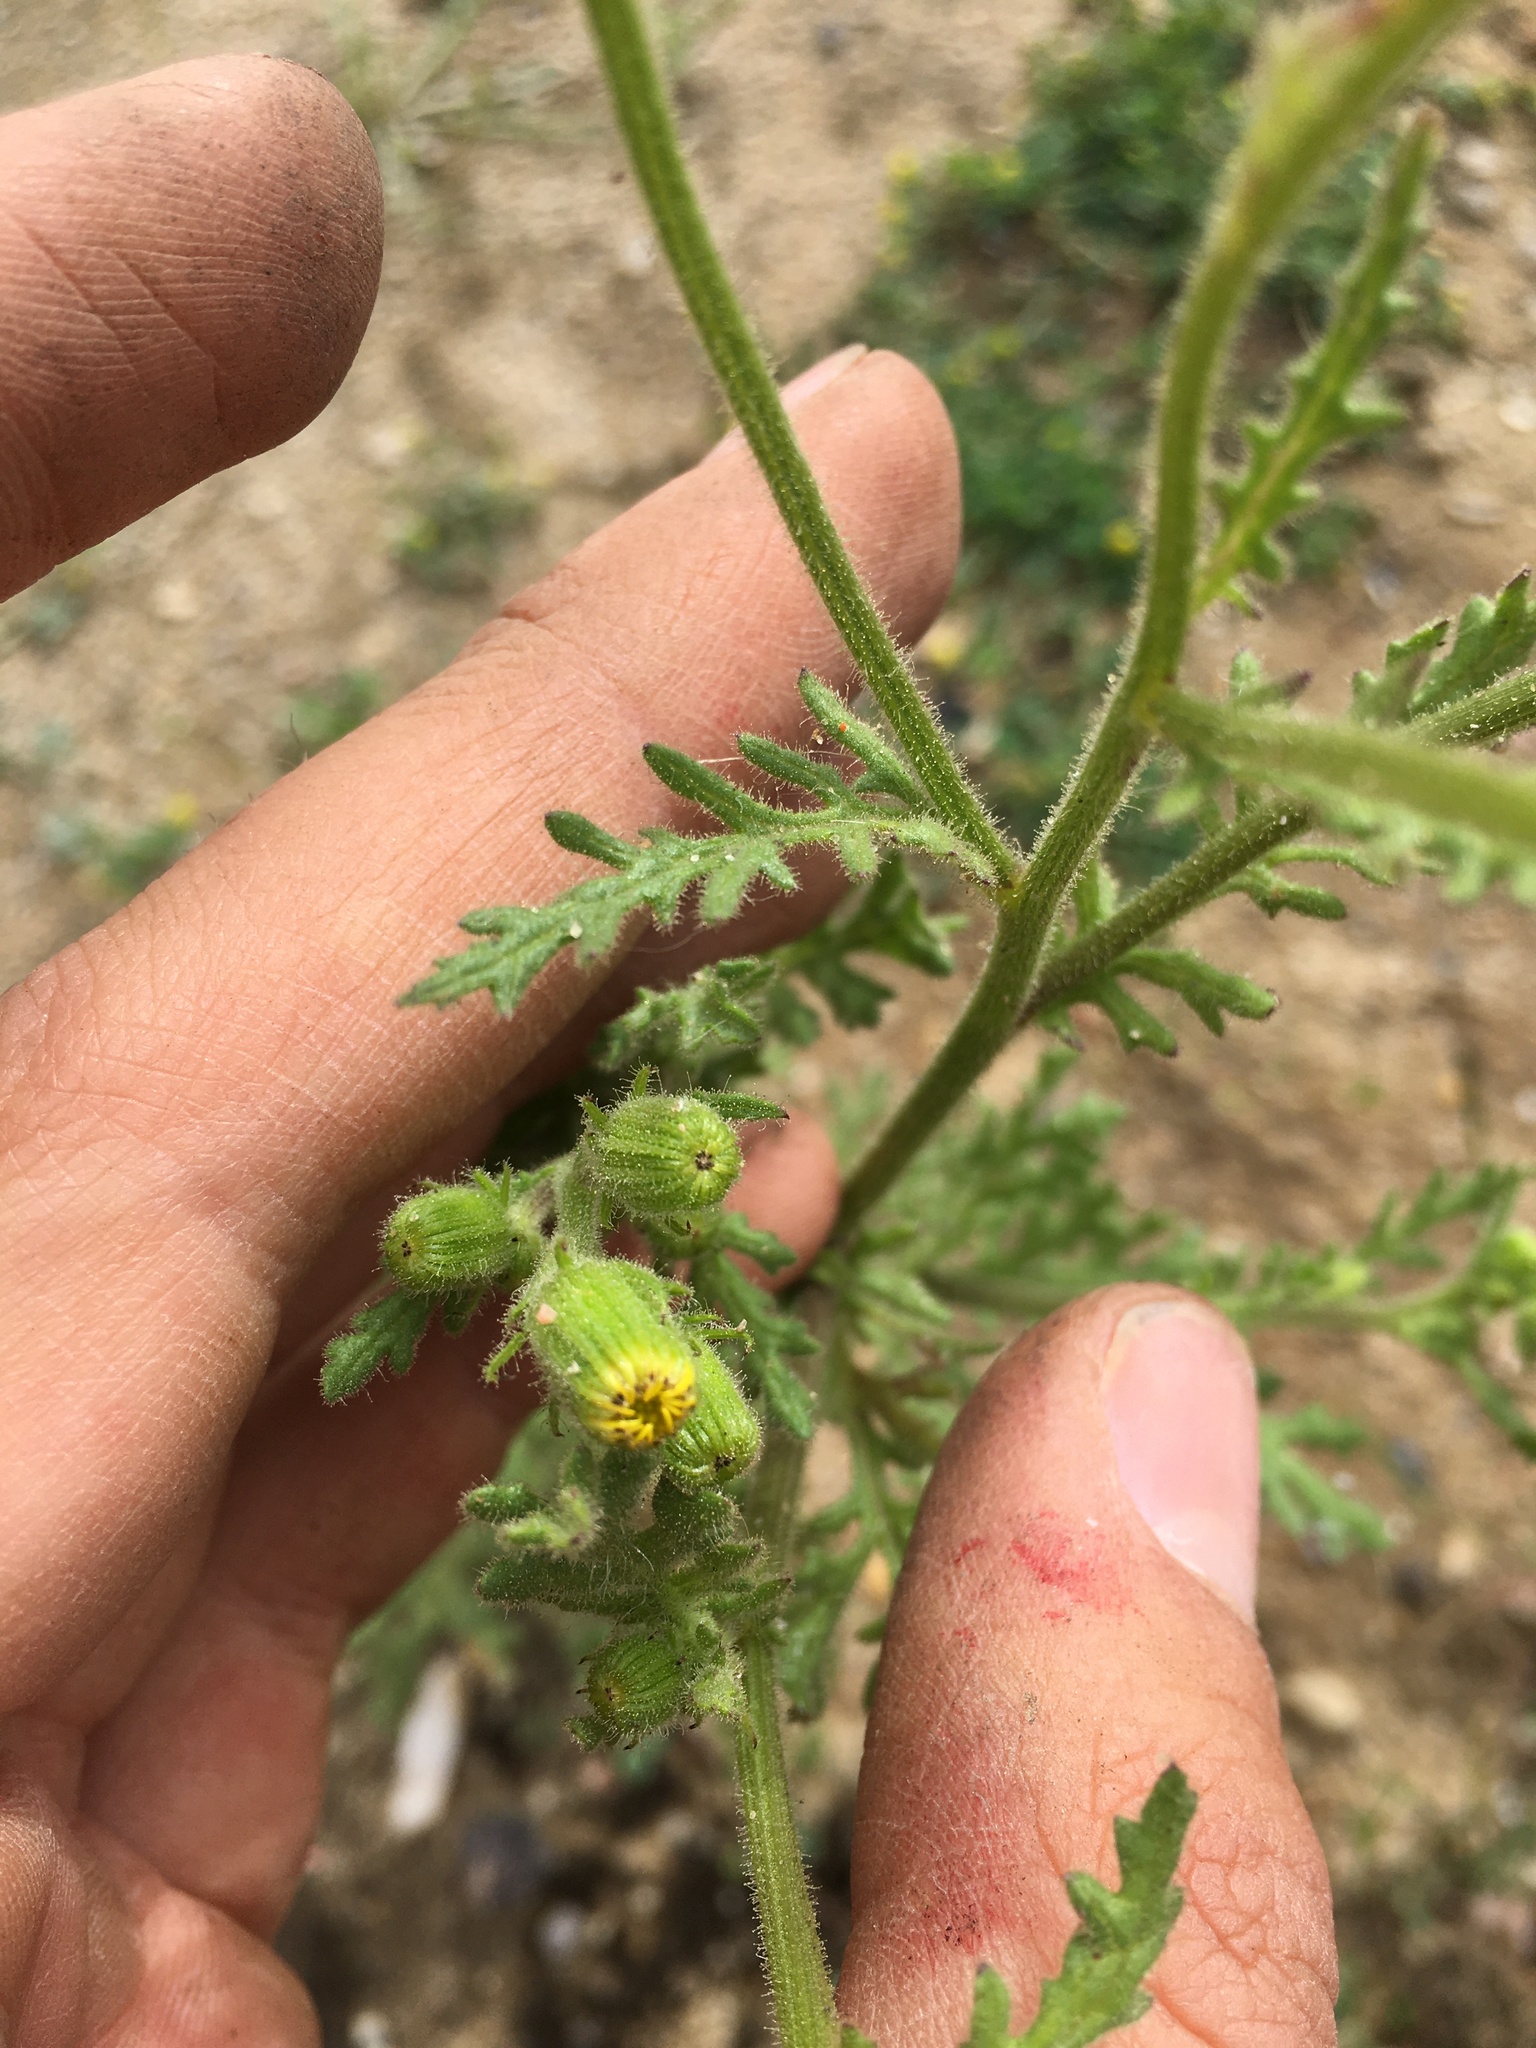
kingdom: Plantae
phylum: Tracheophyta
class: Magnoliopsida
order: Asterales
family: Asteraceae
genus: Senecio
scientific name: Senecio viscosus
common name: Sticky groundsel
